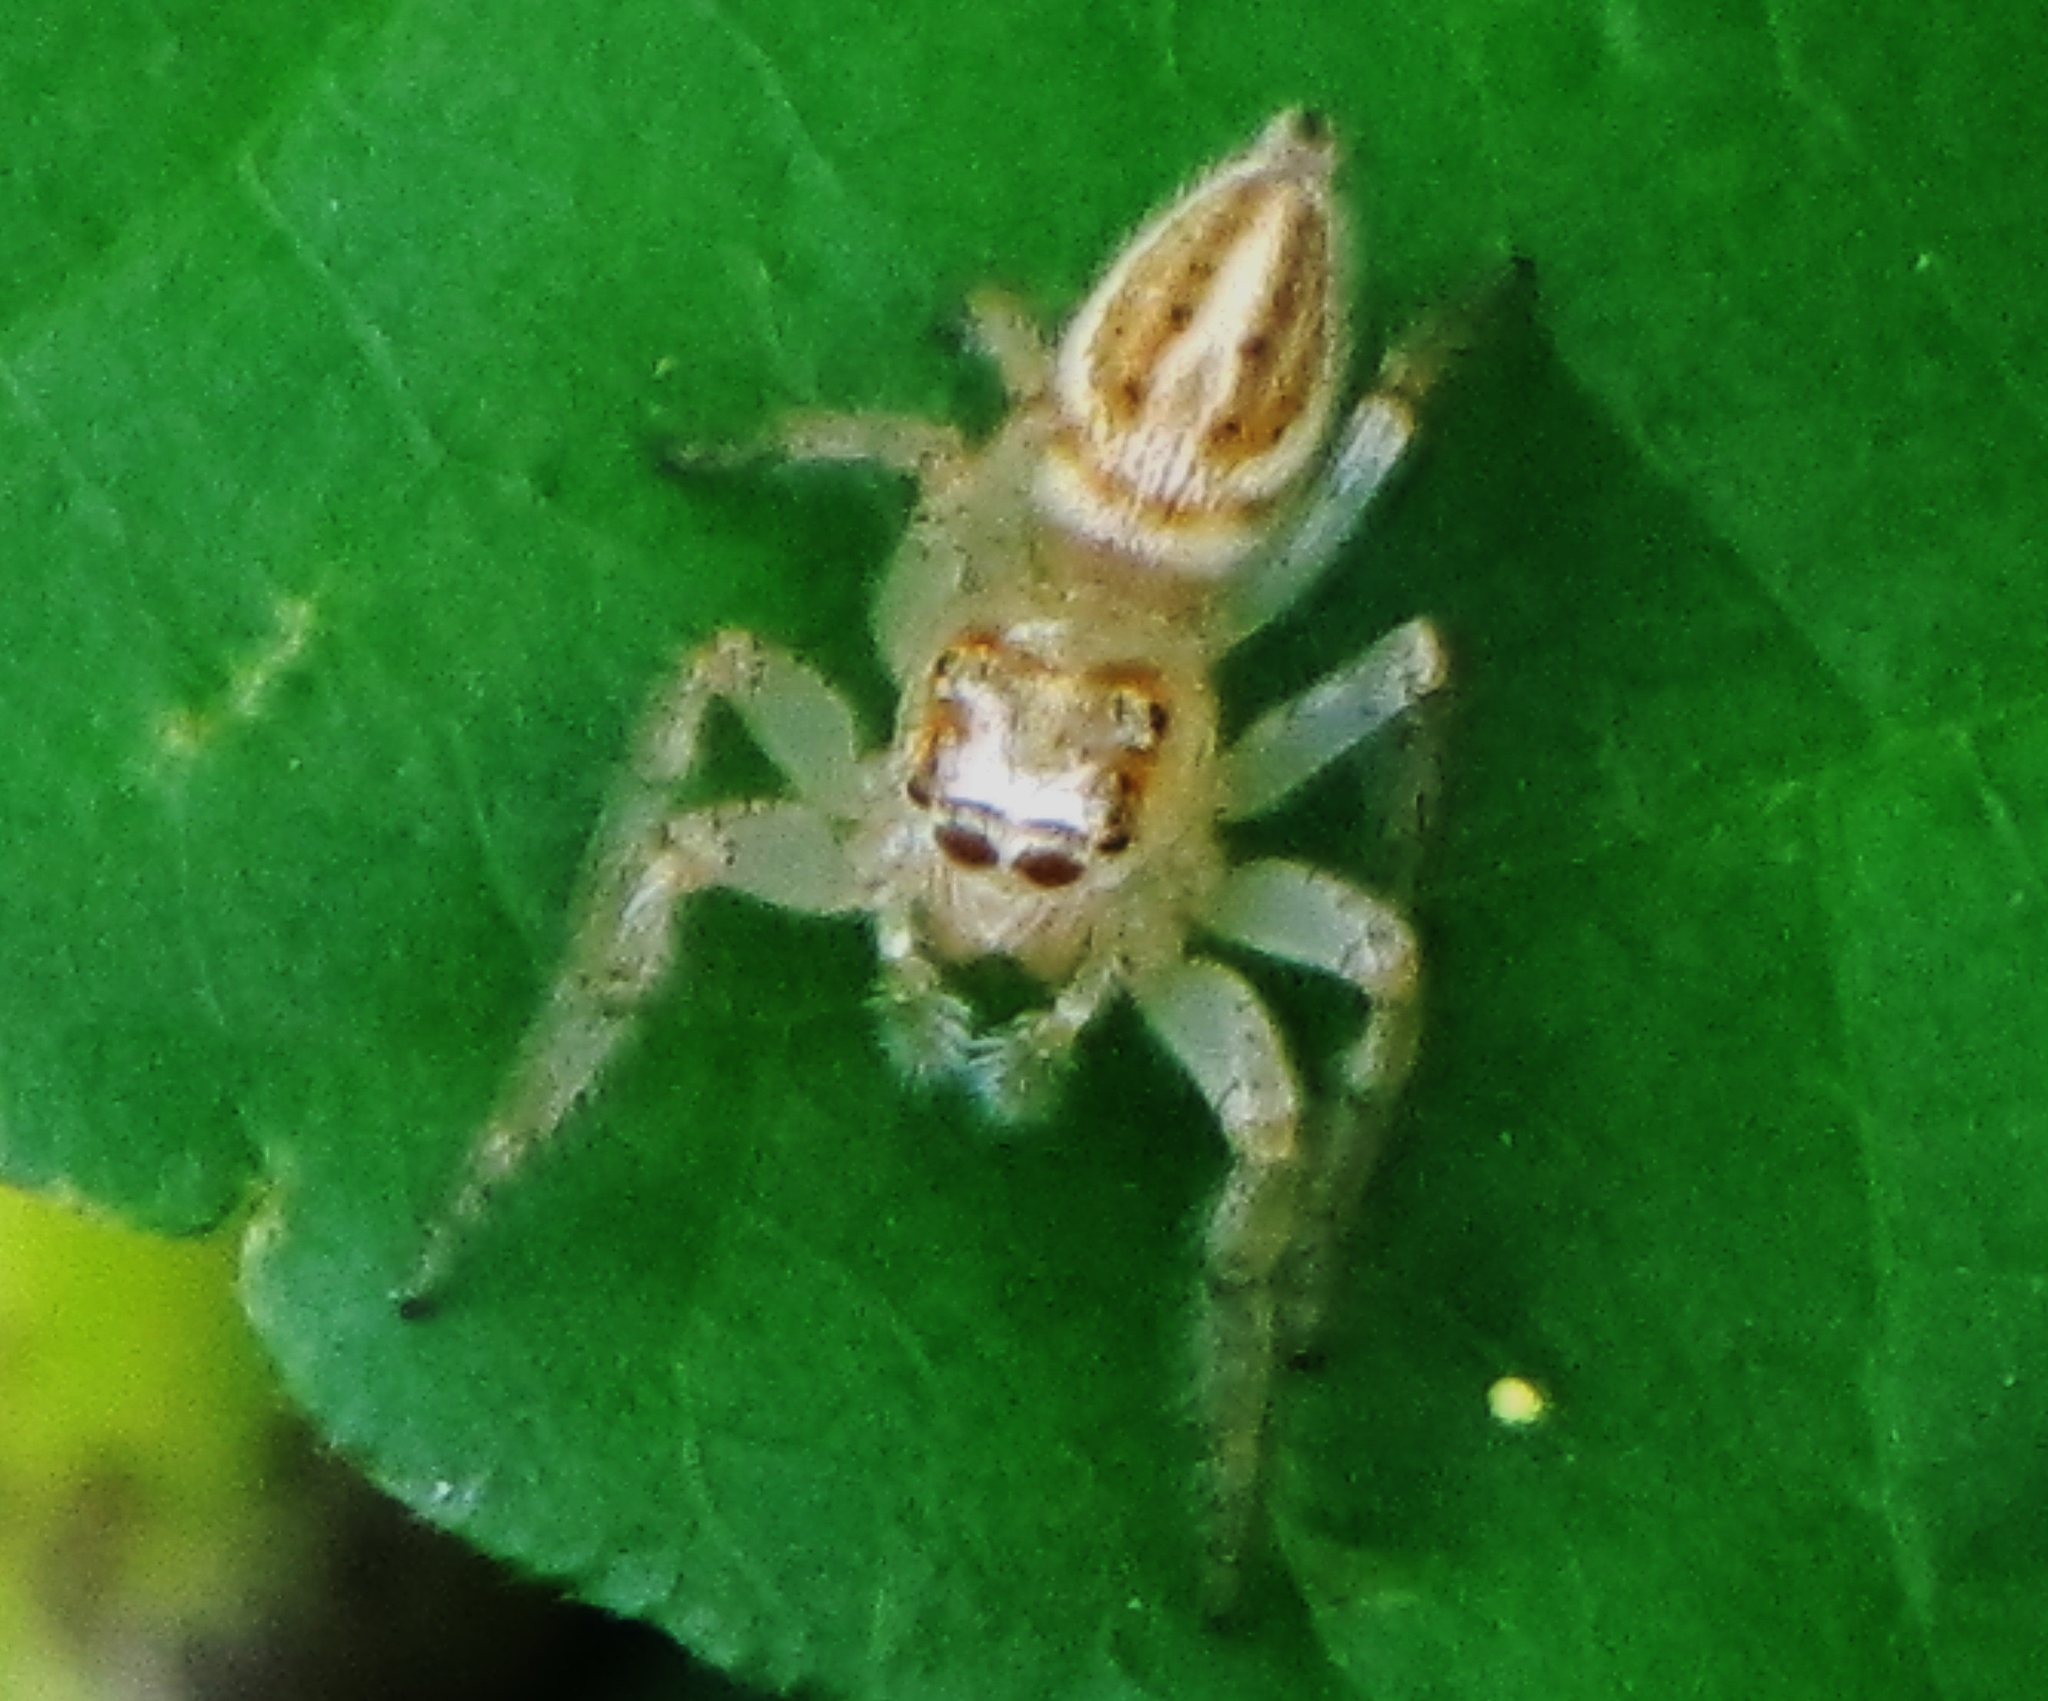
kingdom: Animalia
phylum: Arthropoda
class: Arachnida
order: Araneae
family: Salticidae
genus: Colonus
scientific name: Colonus sylvanus
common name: Jumping spiders
